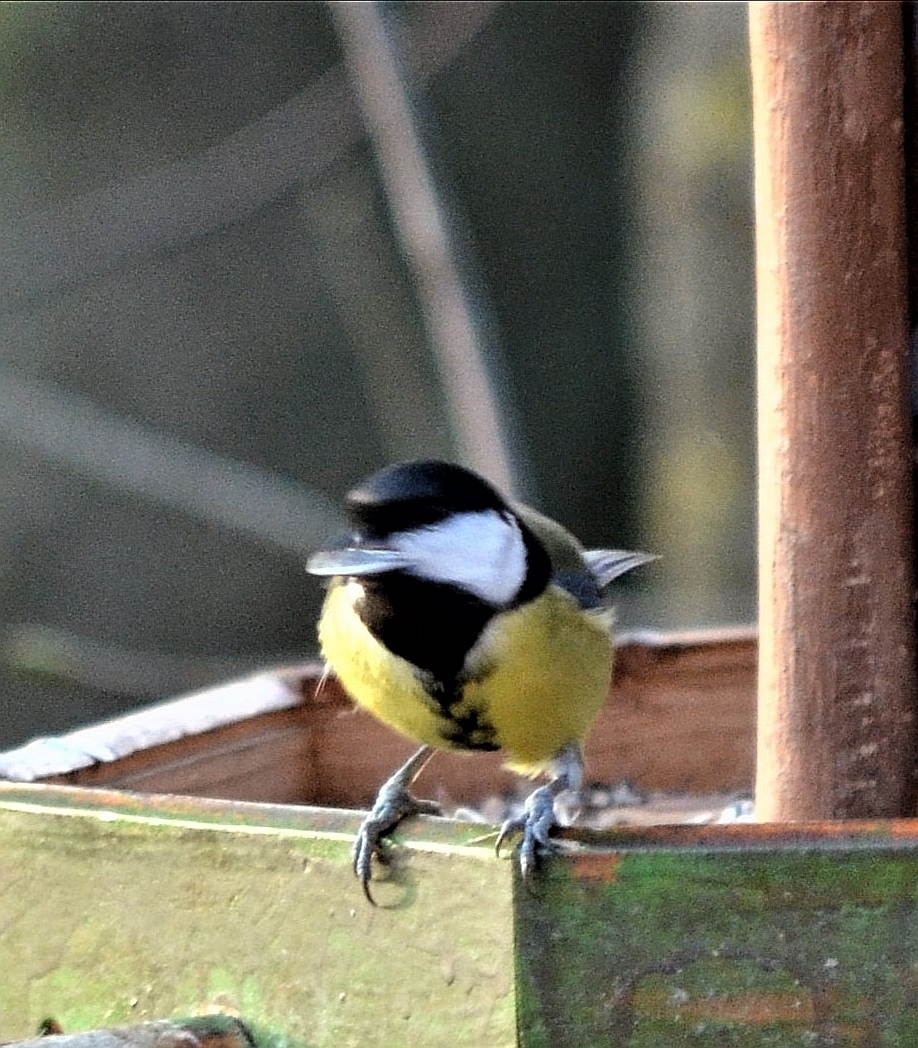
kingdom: Animalia
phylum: Chordata
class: Aves
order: Passeriformes
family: Paridae
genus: Parus
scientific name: Parus major
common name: Great tit
